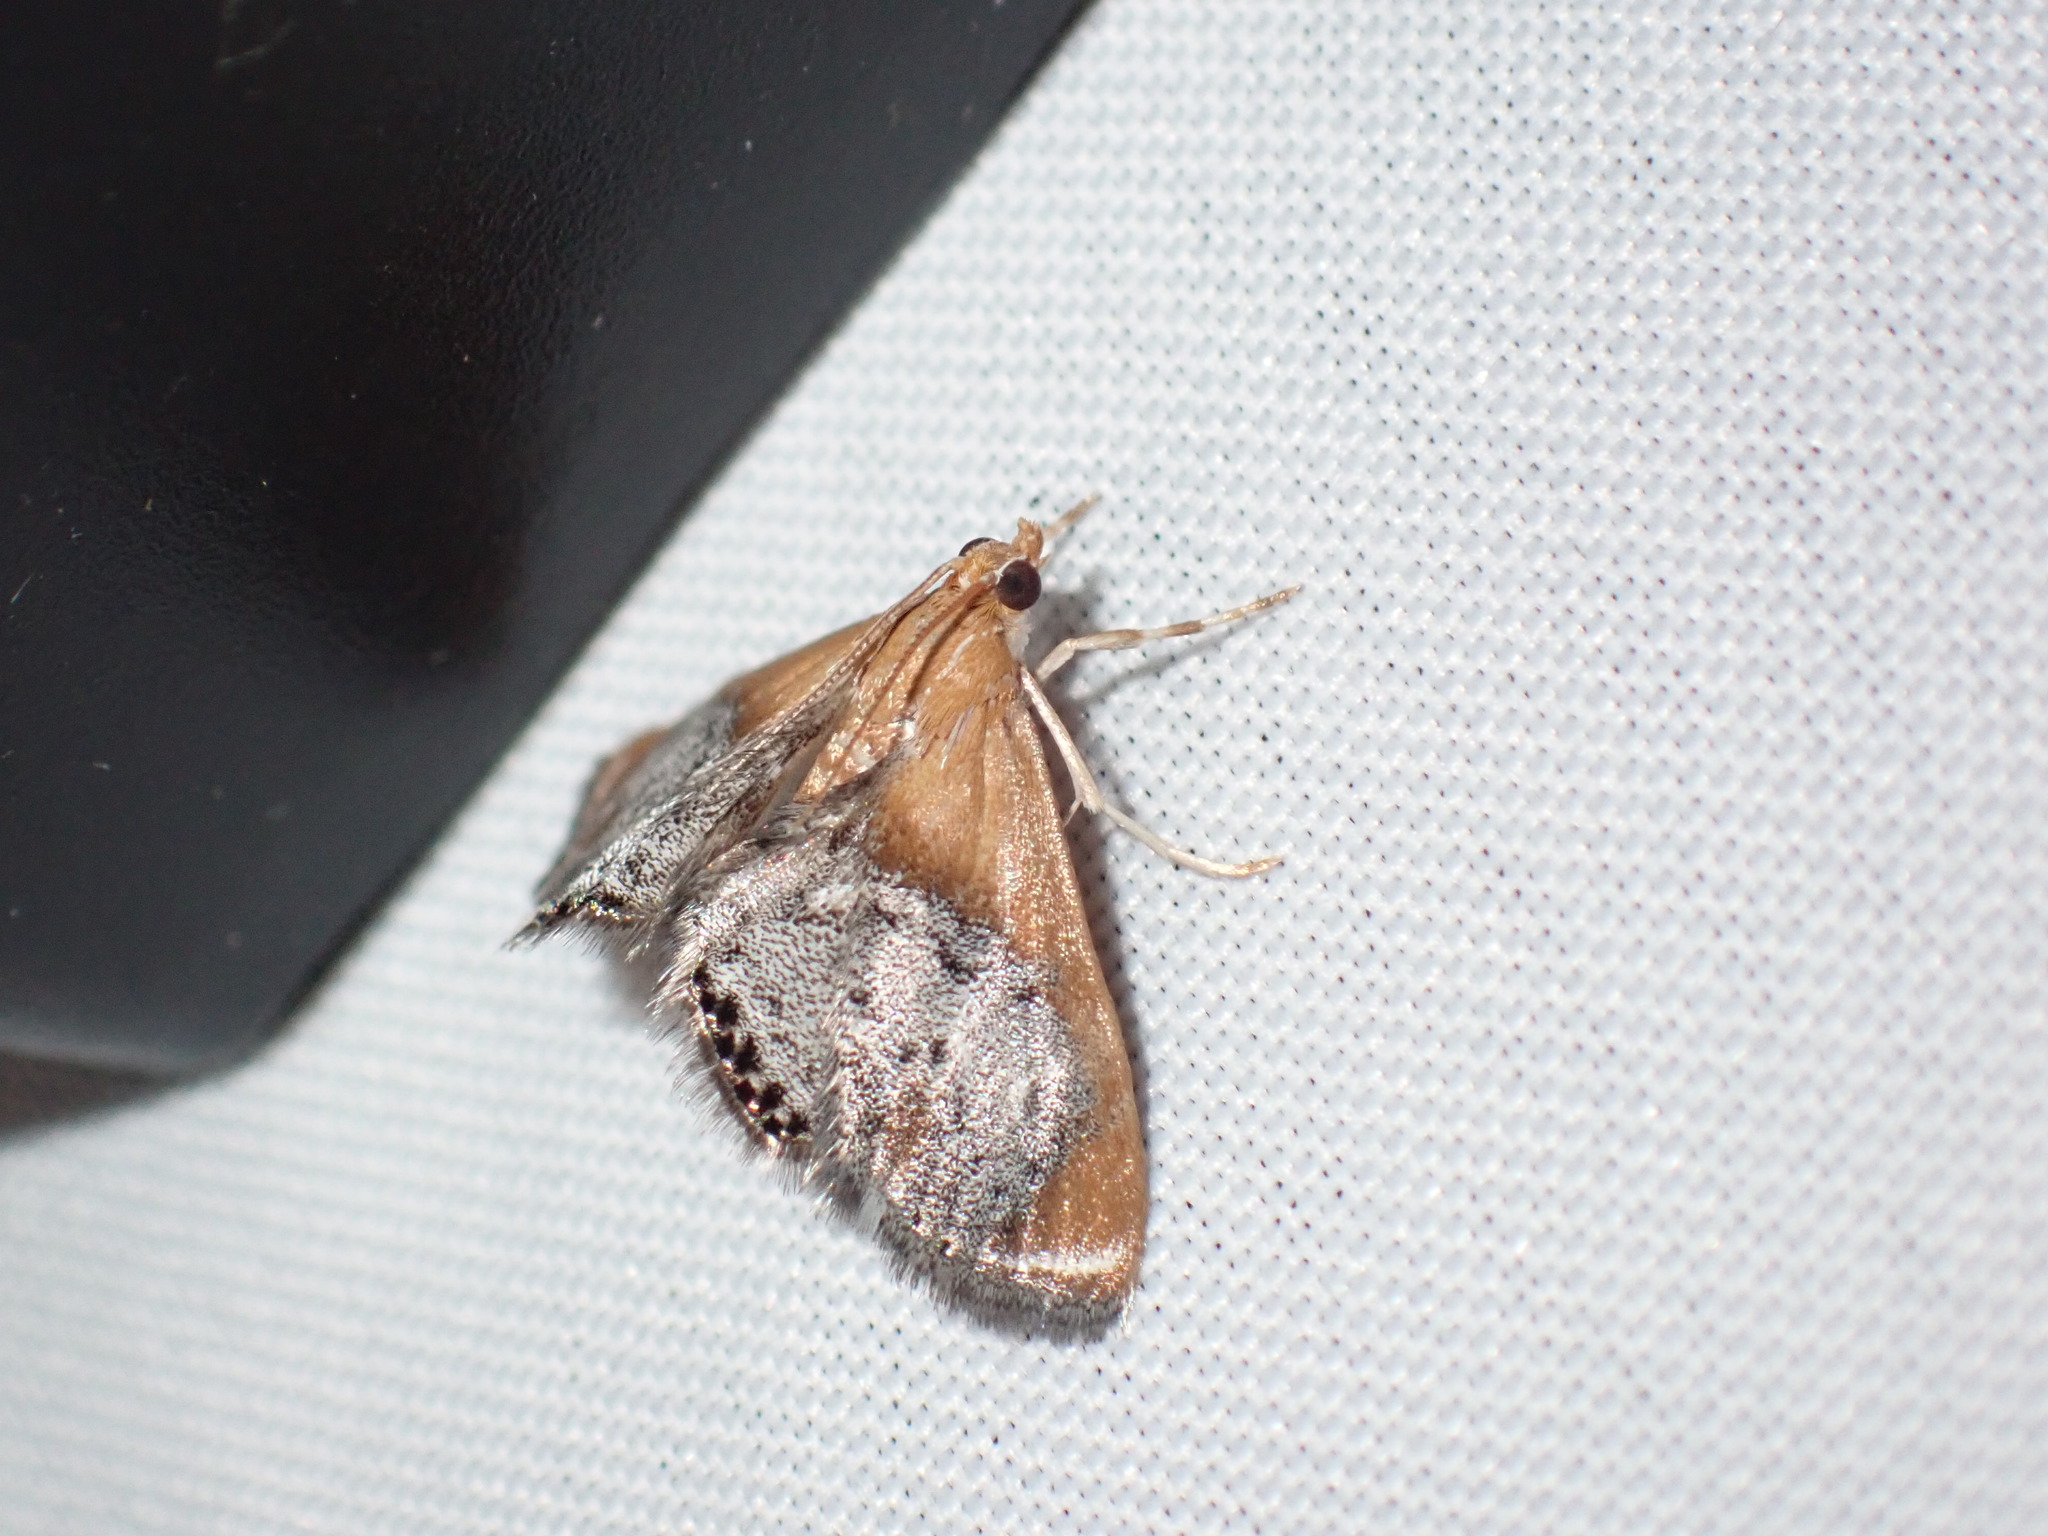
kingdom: Animalia
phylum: Arthropoda
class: Insecta
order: Lepidoptera
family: Crambidae
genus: Chalcoela
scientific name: Chalcoela iphitalis
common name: Sooty-winged chalcoela moth
